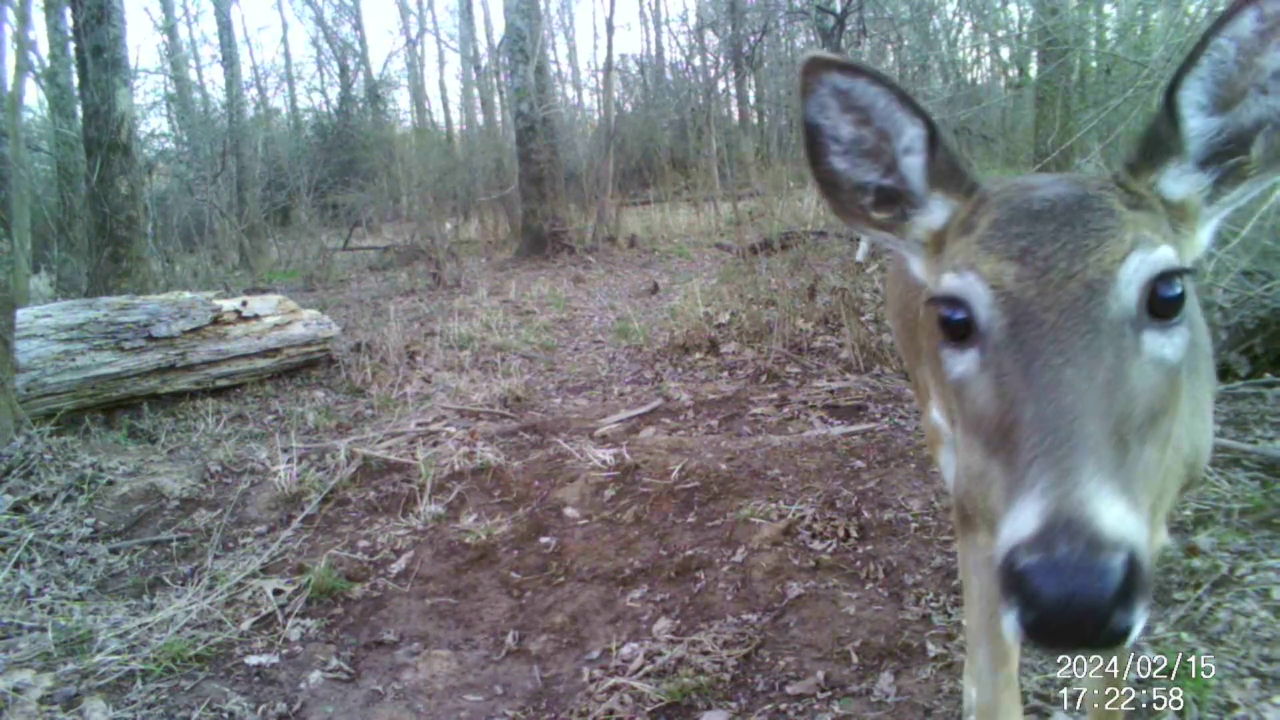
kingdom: Animalia
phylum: Chordata
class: Mammalia
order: Artiodactyla
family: Cervidae
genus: Odocoileus
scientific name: Odocoileus virginianus
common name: White-tailed deer
